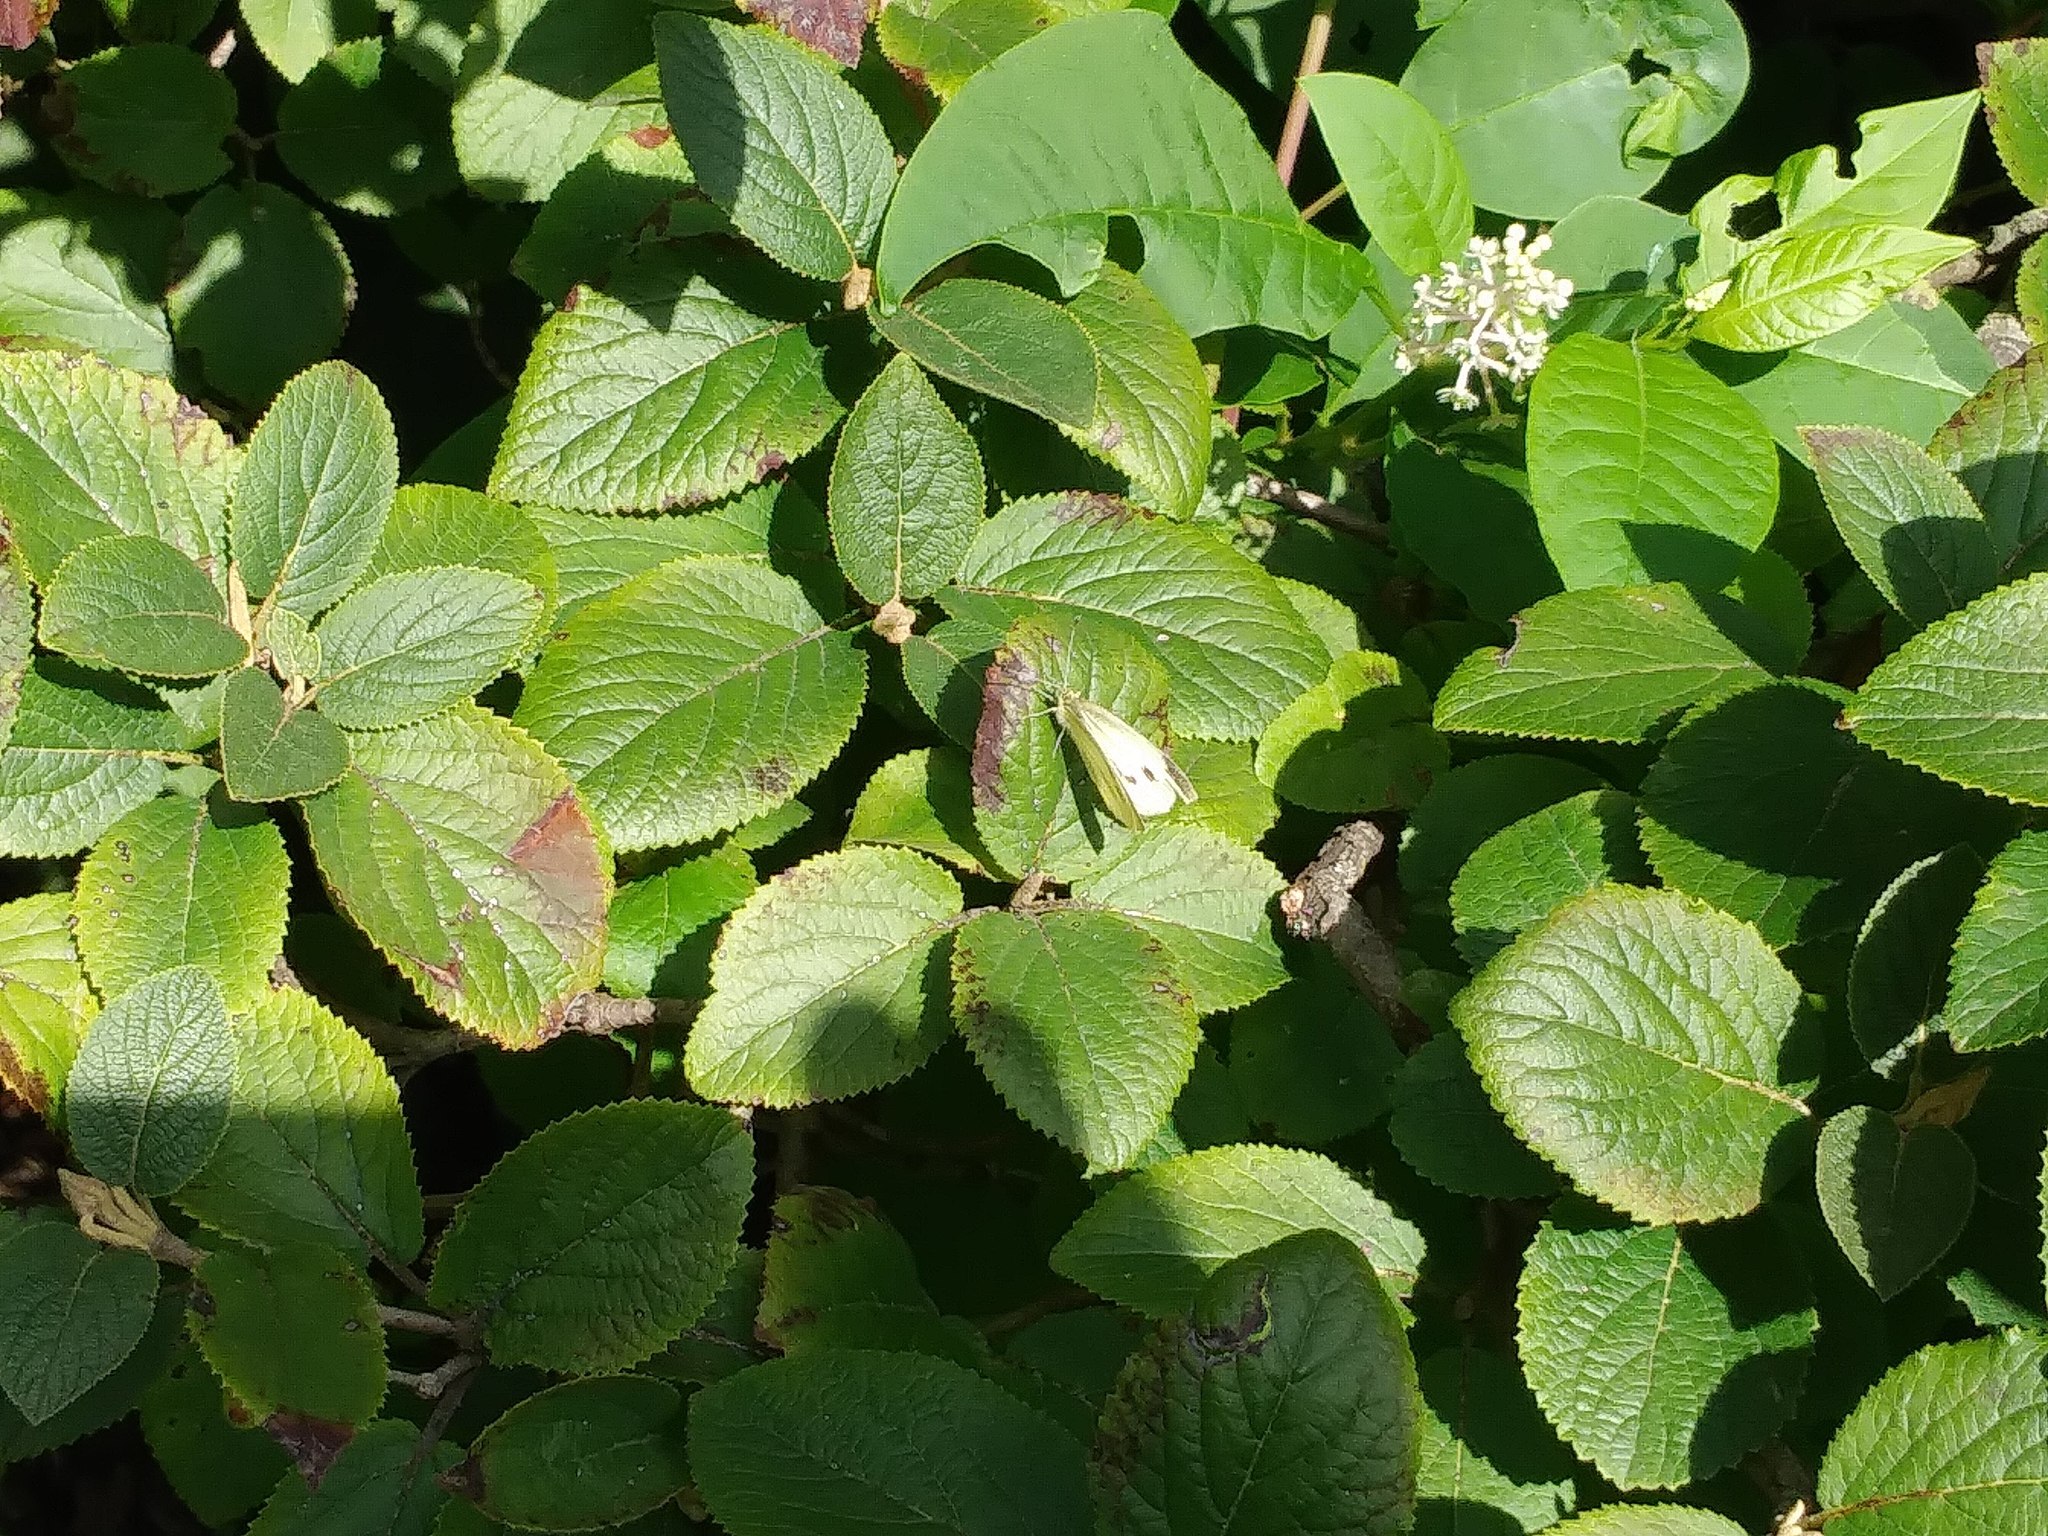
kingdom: Animalia
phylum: Arthropoda
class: Insecta
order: Lepidoptera
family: Pieridae
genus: Pieris
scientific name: Pieris rapae
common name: Small white
